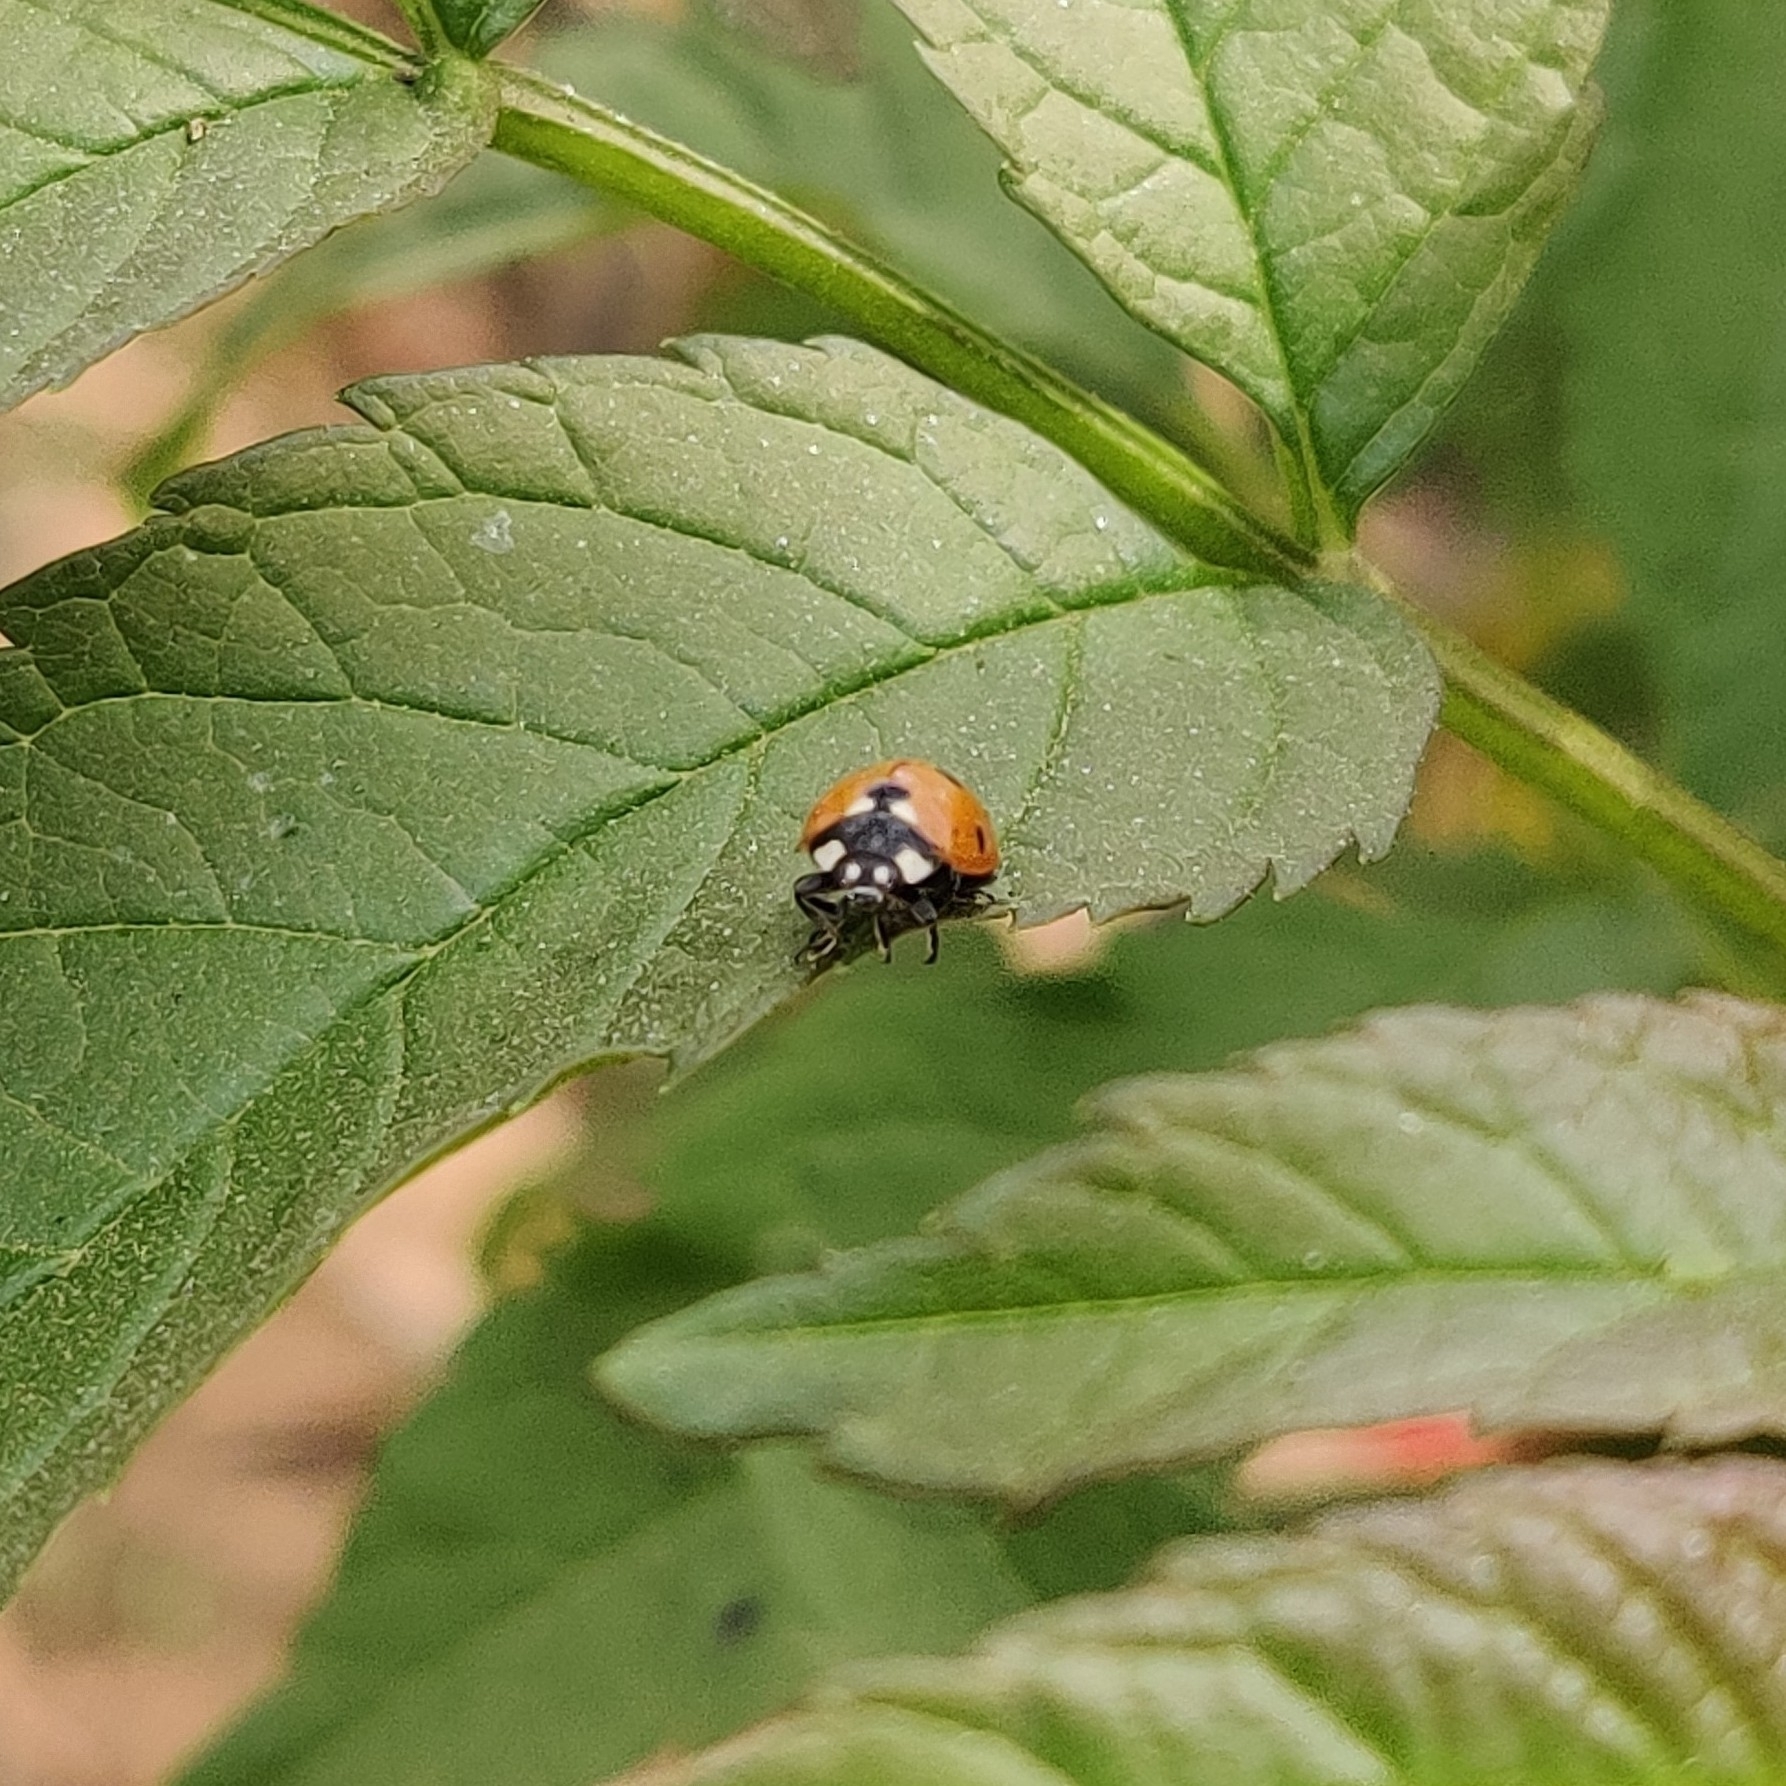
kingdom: Animalia
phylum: Arthropoda
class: Insecta
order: Coleoptera
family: Coccinellidae
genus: Coccinella
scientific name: Coccinella septempunctata
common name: Sevenspotted lady beetle
